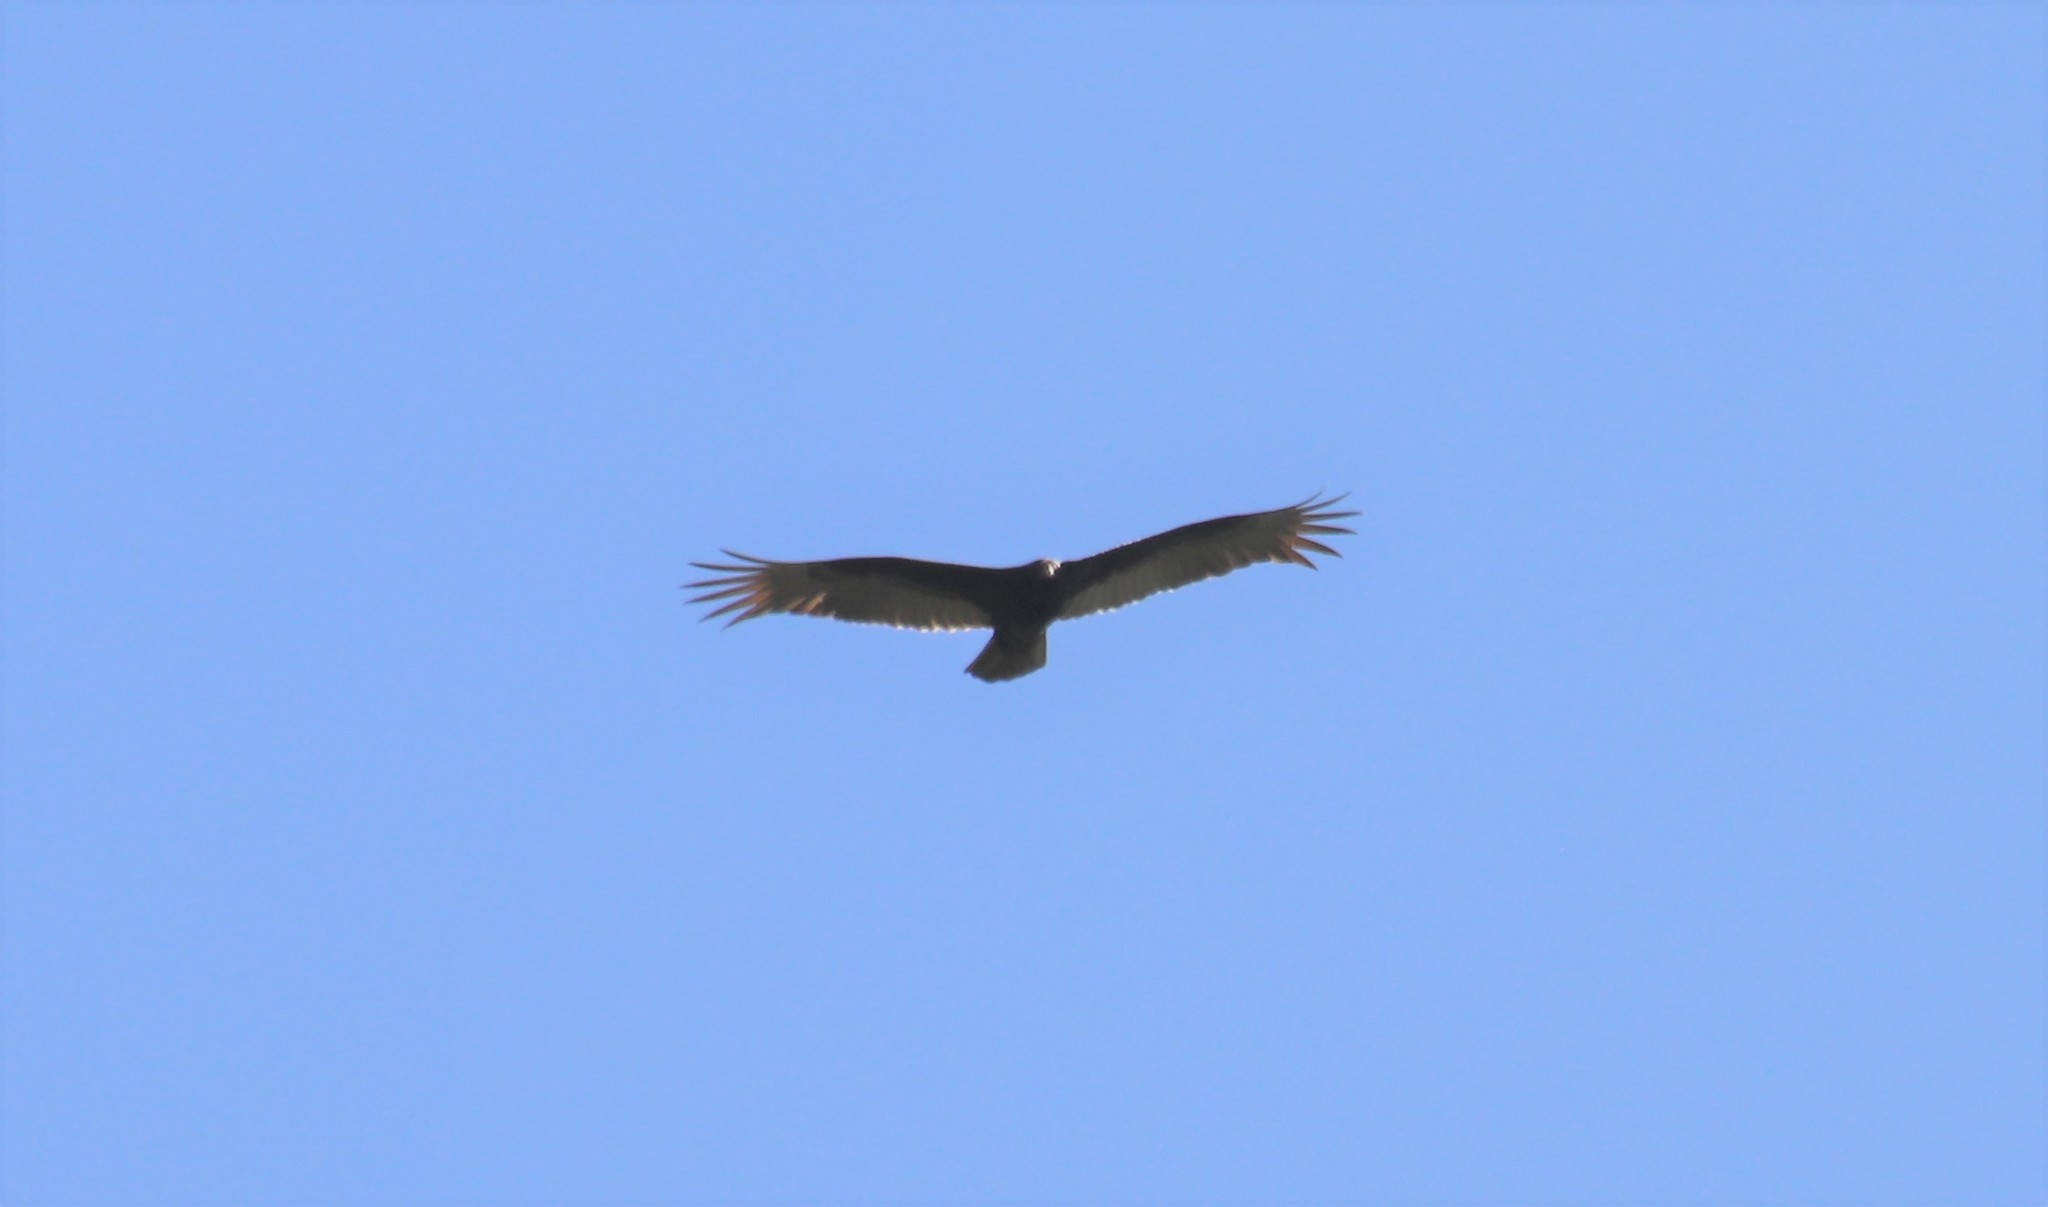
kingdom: Animalia
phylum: Chordata
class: Aves
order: Accipitriformes
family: Cathartidae
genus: Cathartes
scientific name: Cathartes aura
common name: Turkey vulture
